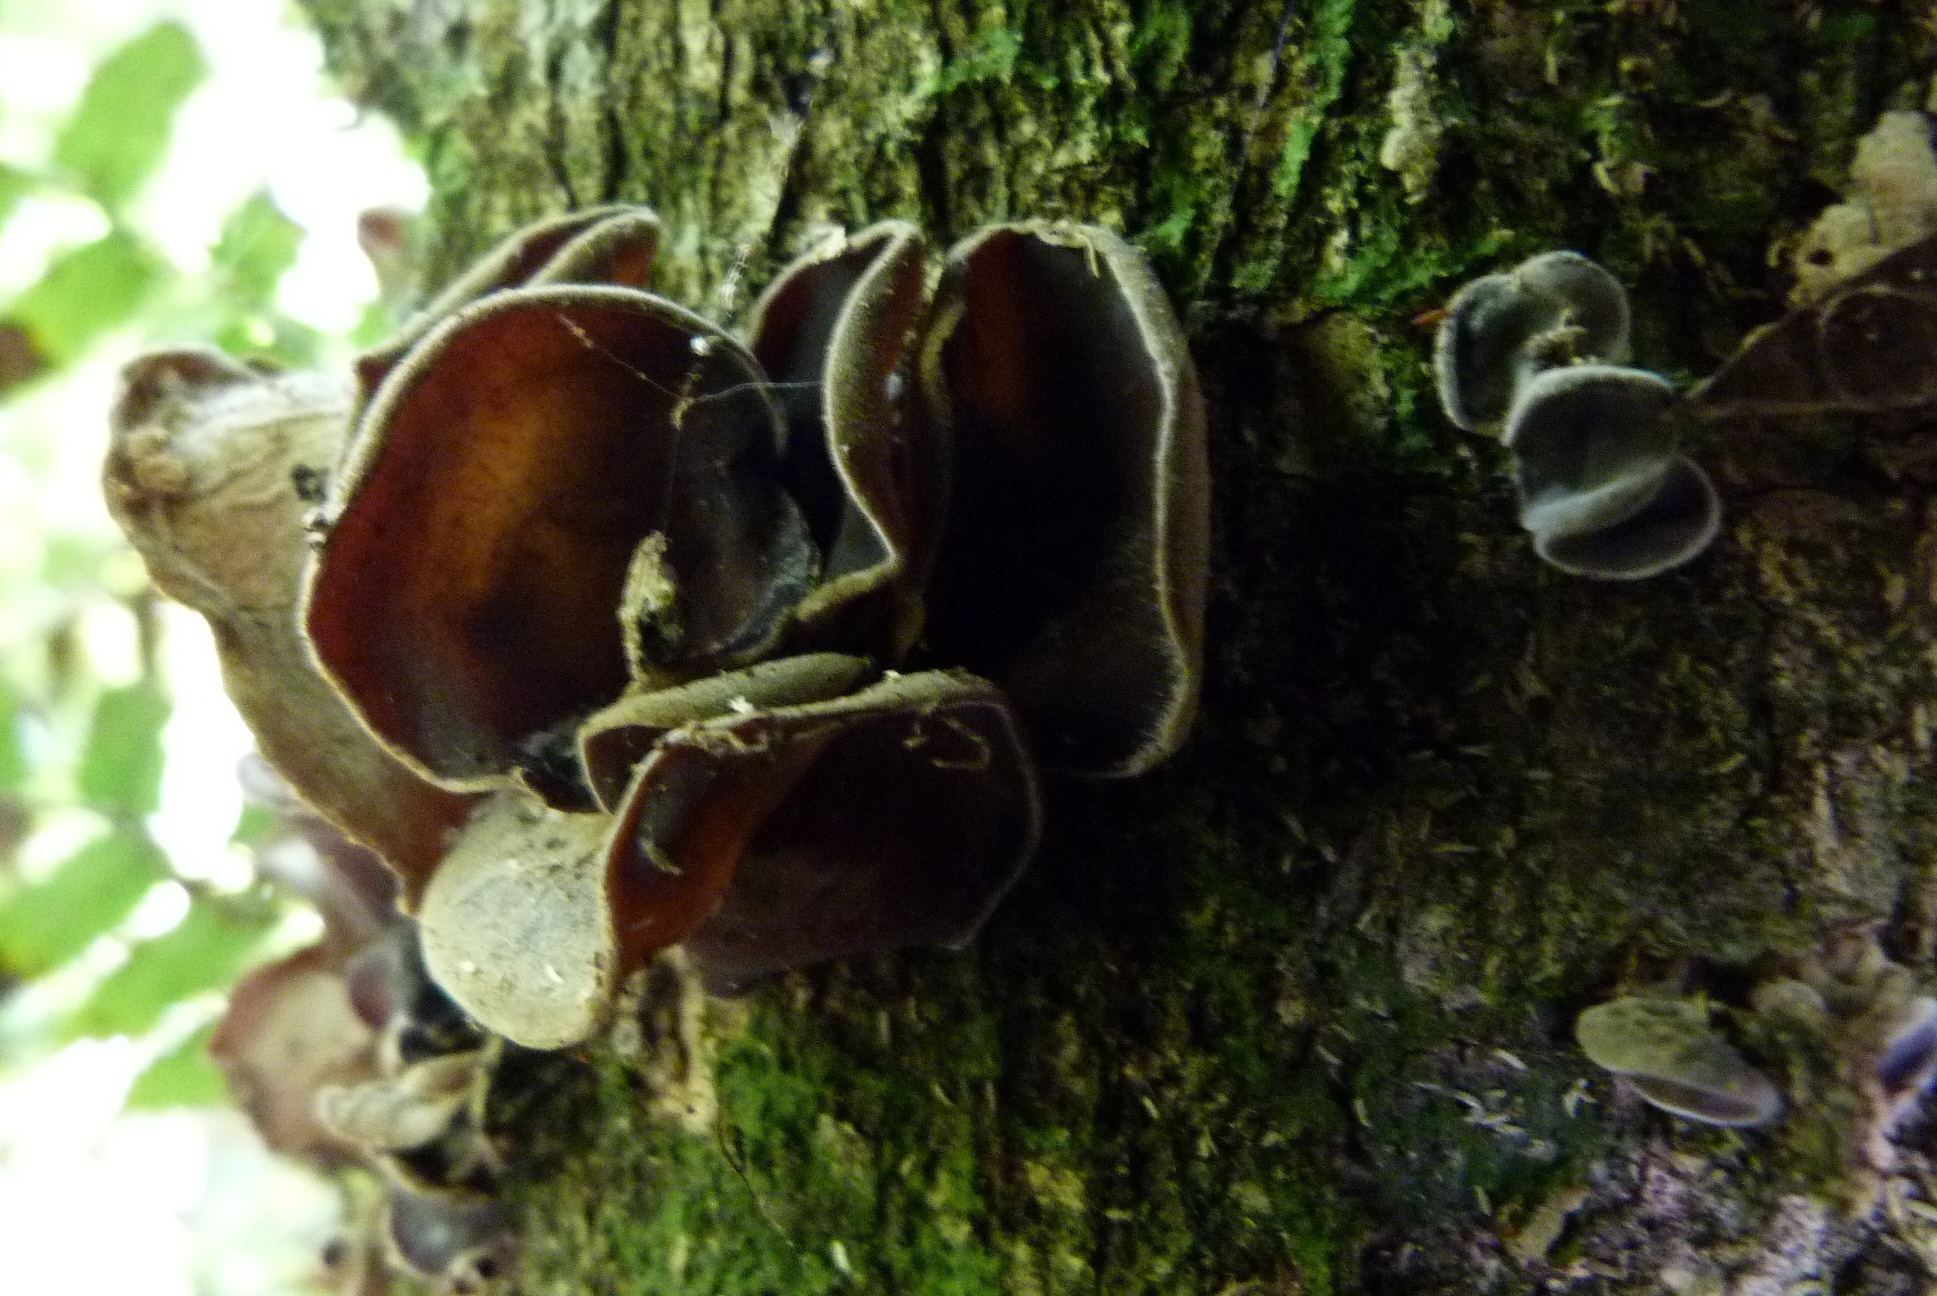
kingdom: Fungi
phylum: Basidiomycota
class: Agaricomycetes
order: Auriculariales
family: Auriculariaceae
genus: Auricularia
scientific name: Auricularia cornea
